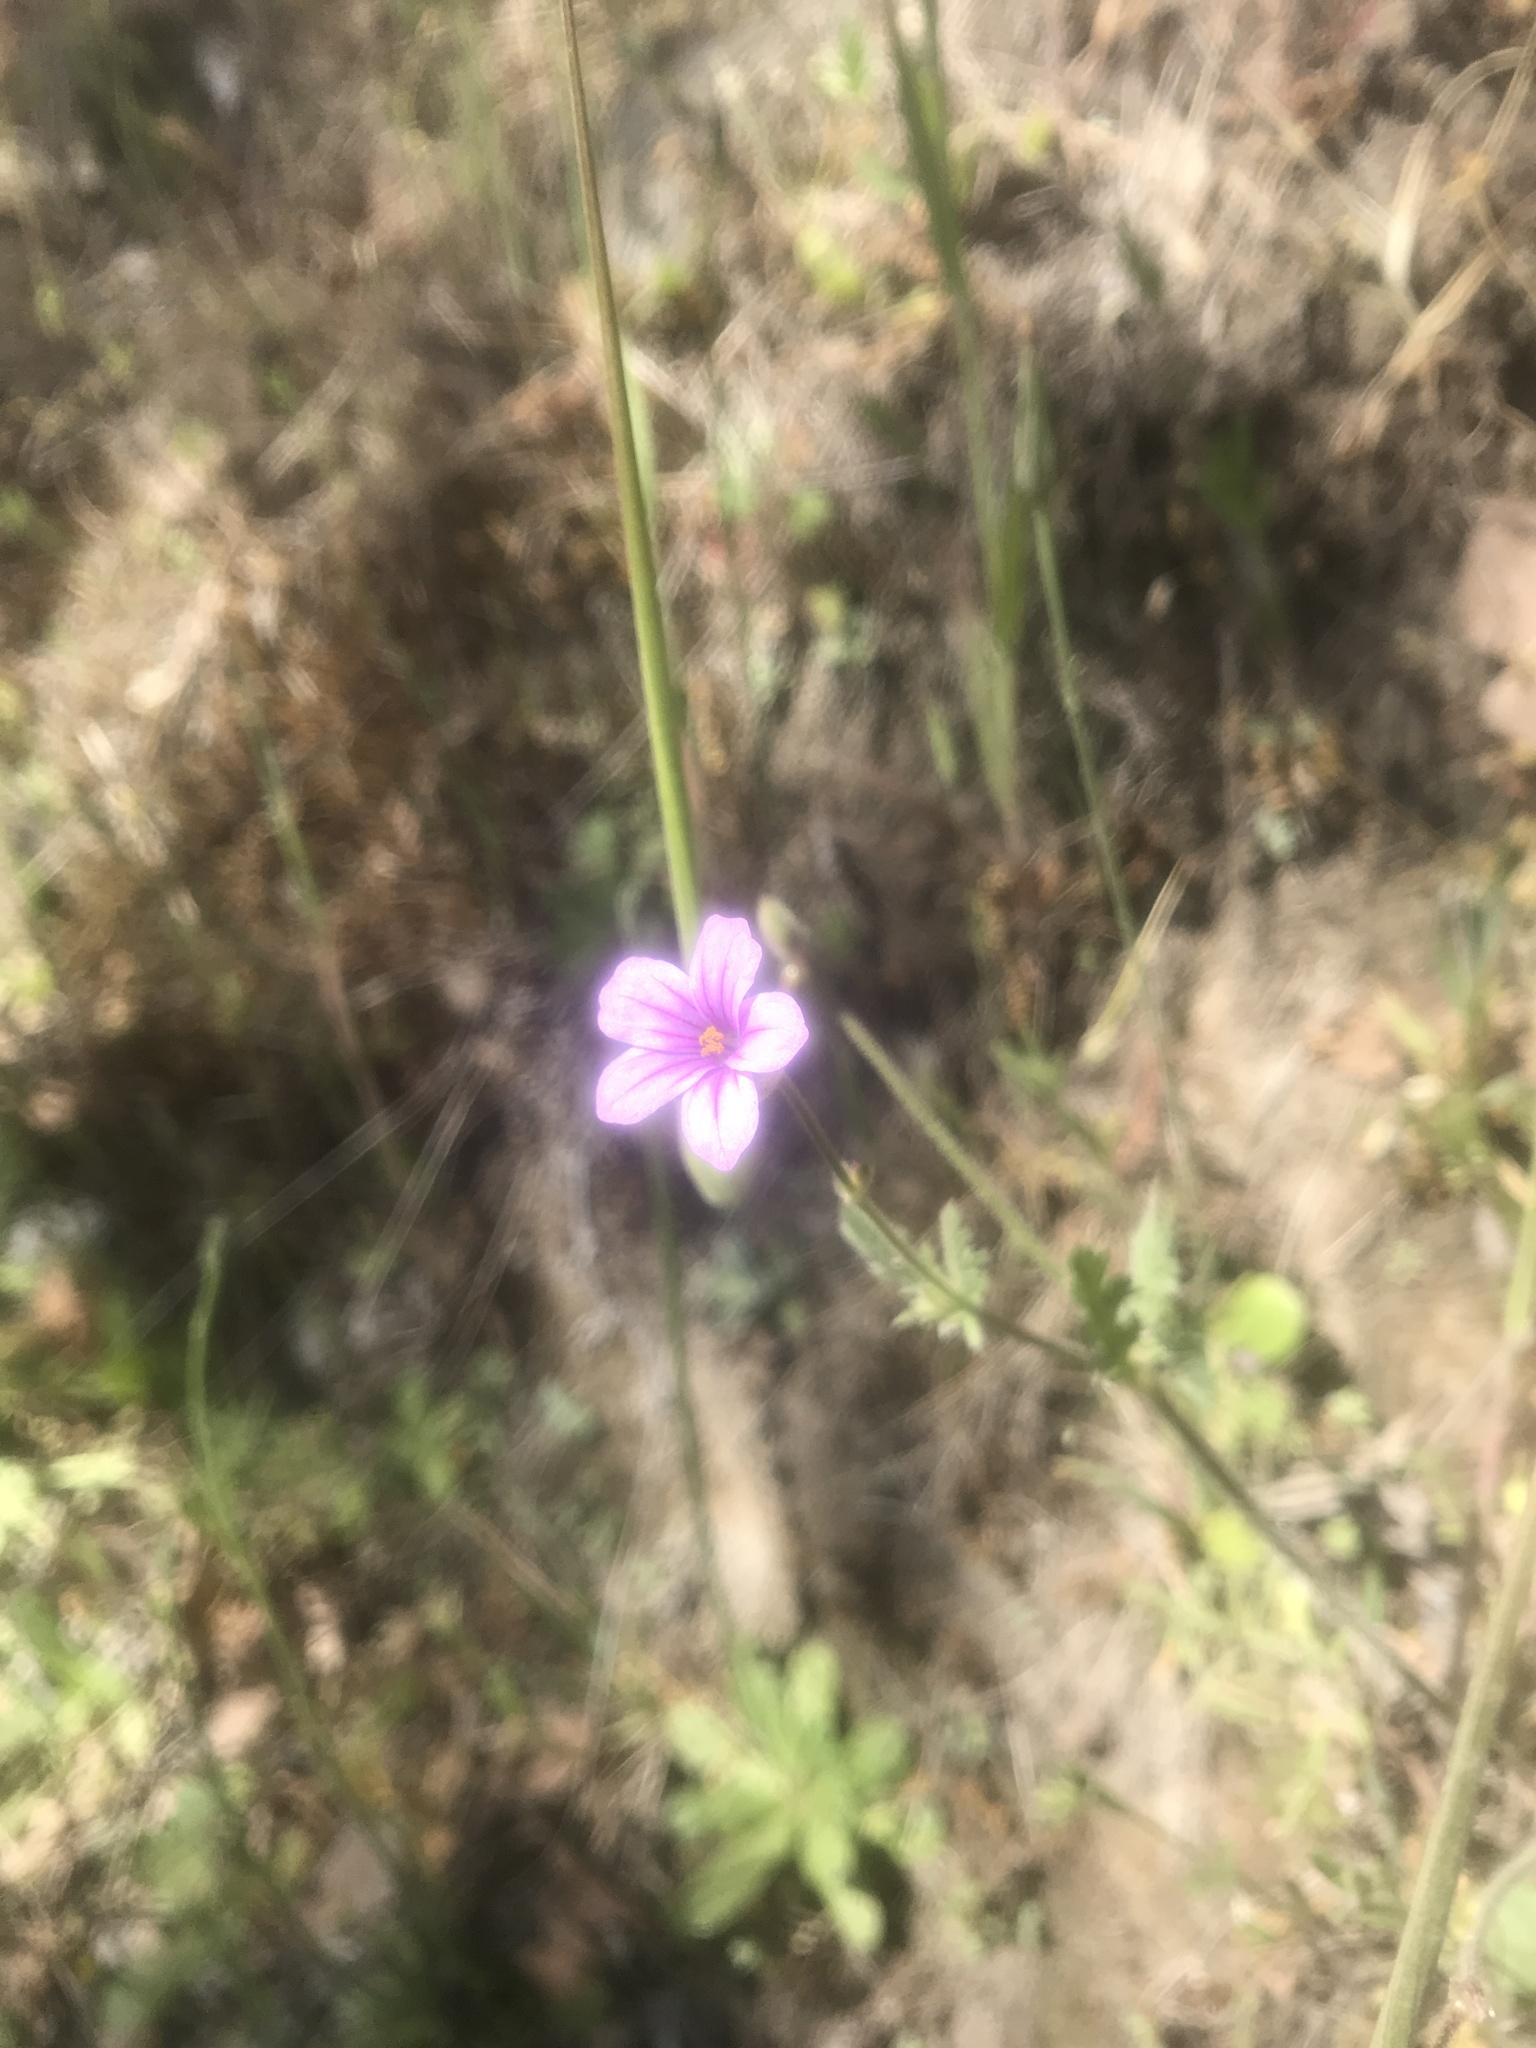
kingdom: Plantae
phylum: Tracheophyta
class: Magnoliopsida
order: Geraniales
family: Geraniaceae
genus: Erodium
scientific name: Erodium botrys
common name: Mediterranean stork's-bill
